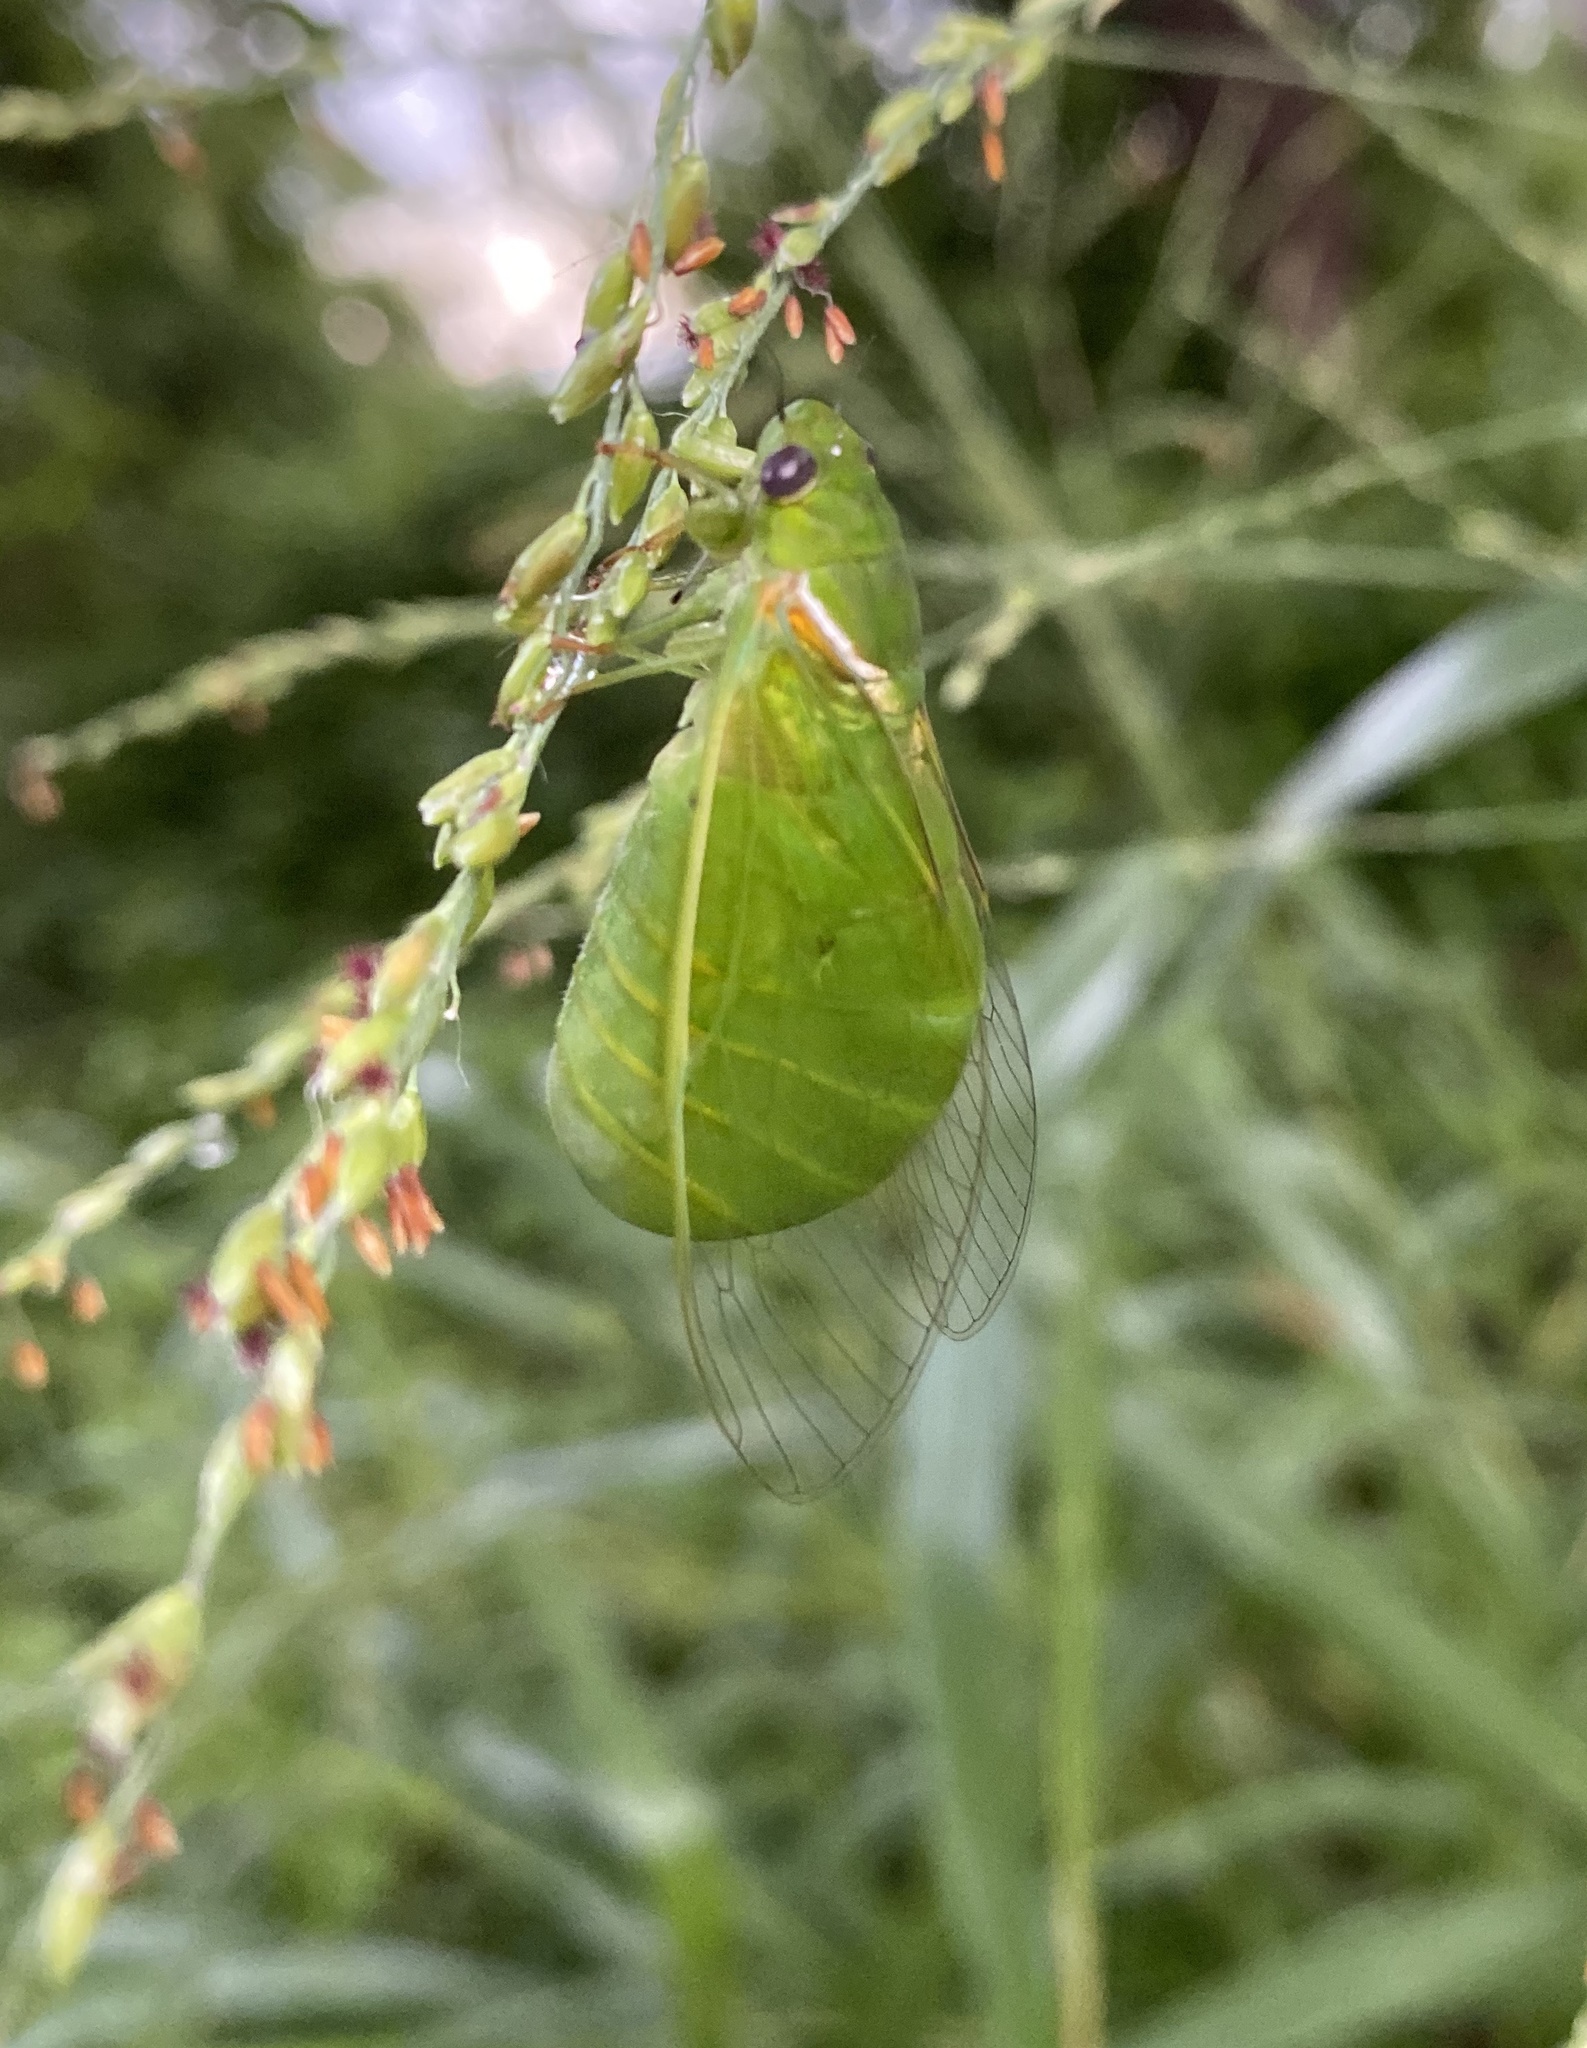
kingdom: Animalia
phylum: Arthropoda
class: Insecta
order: Hemiptera
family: Cicadidae
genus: Chlorocysta
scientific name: Chlorocysta vitripennis
